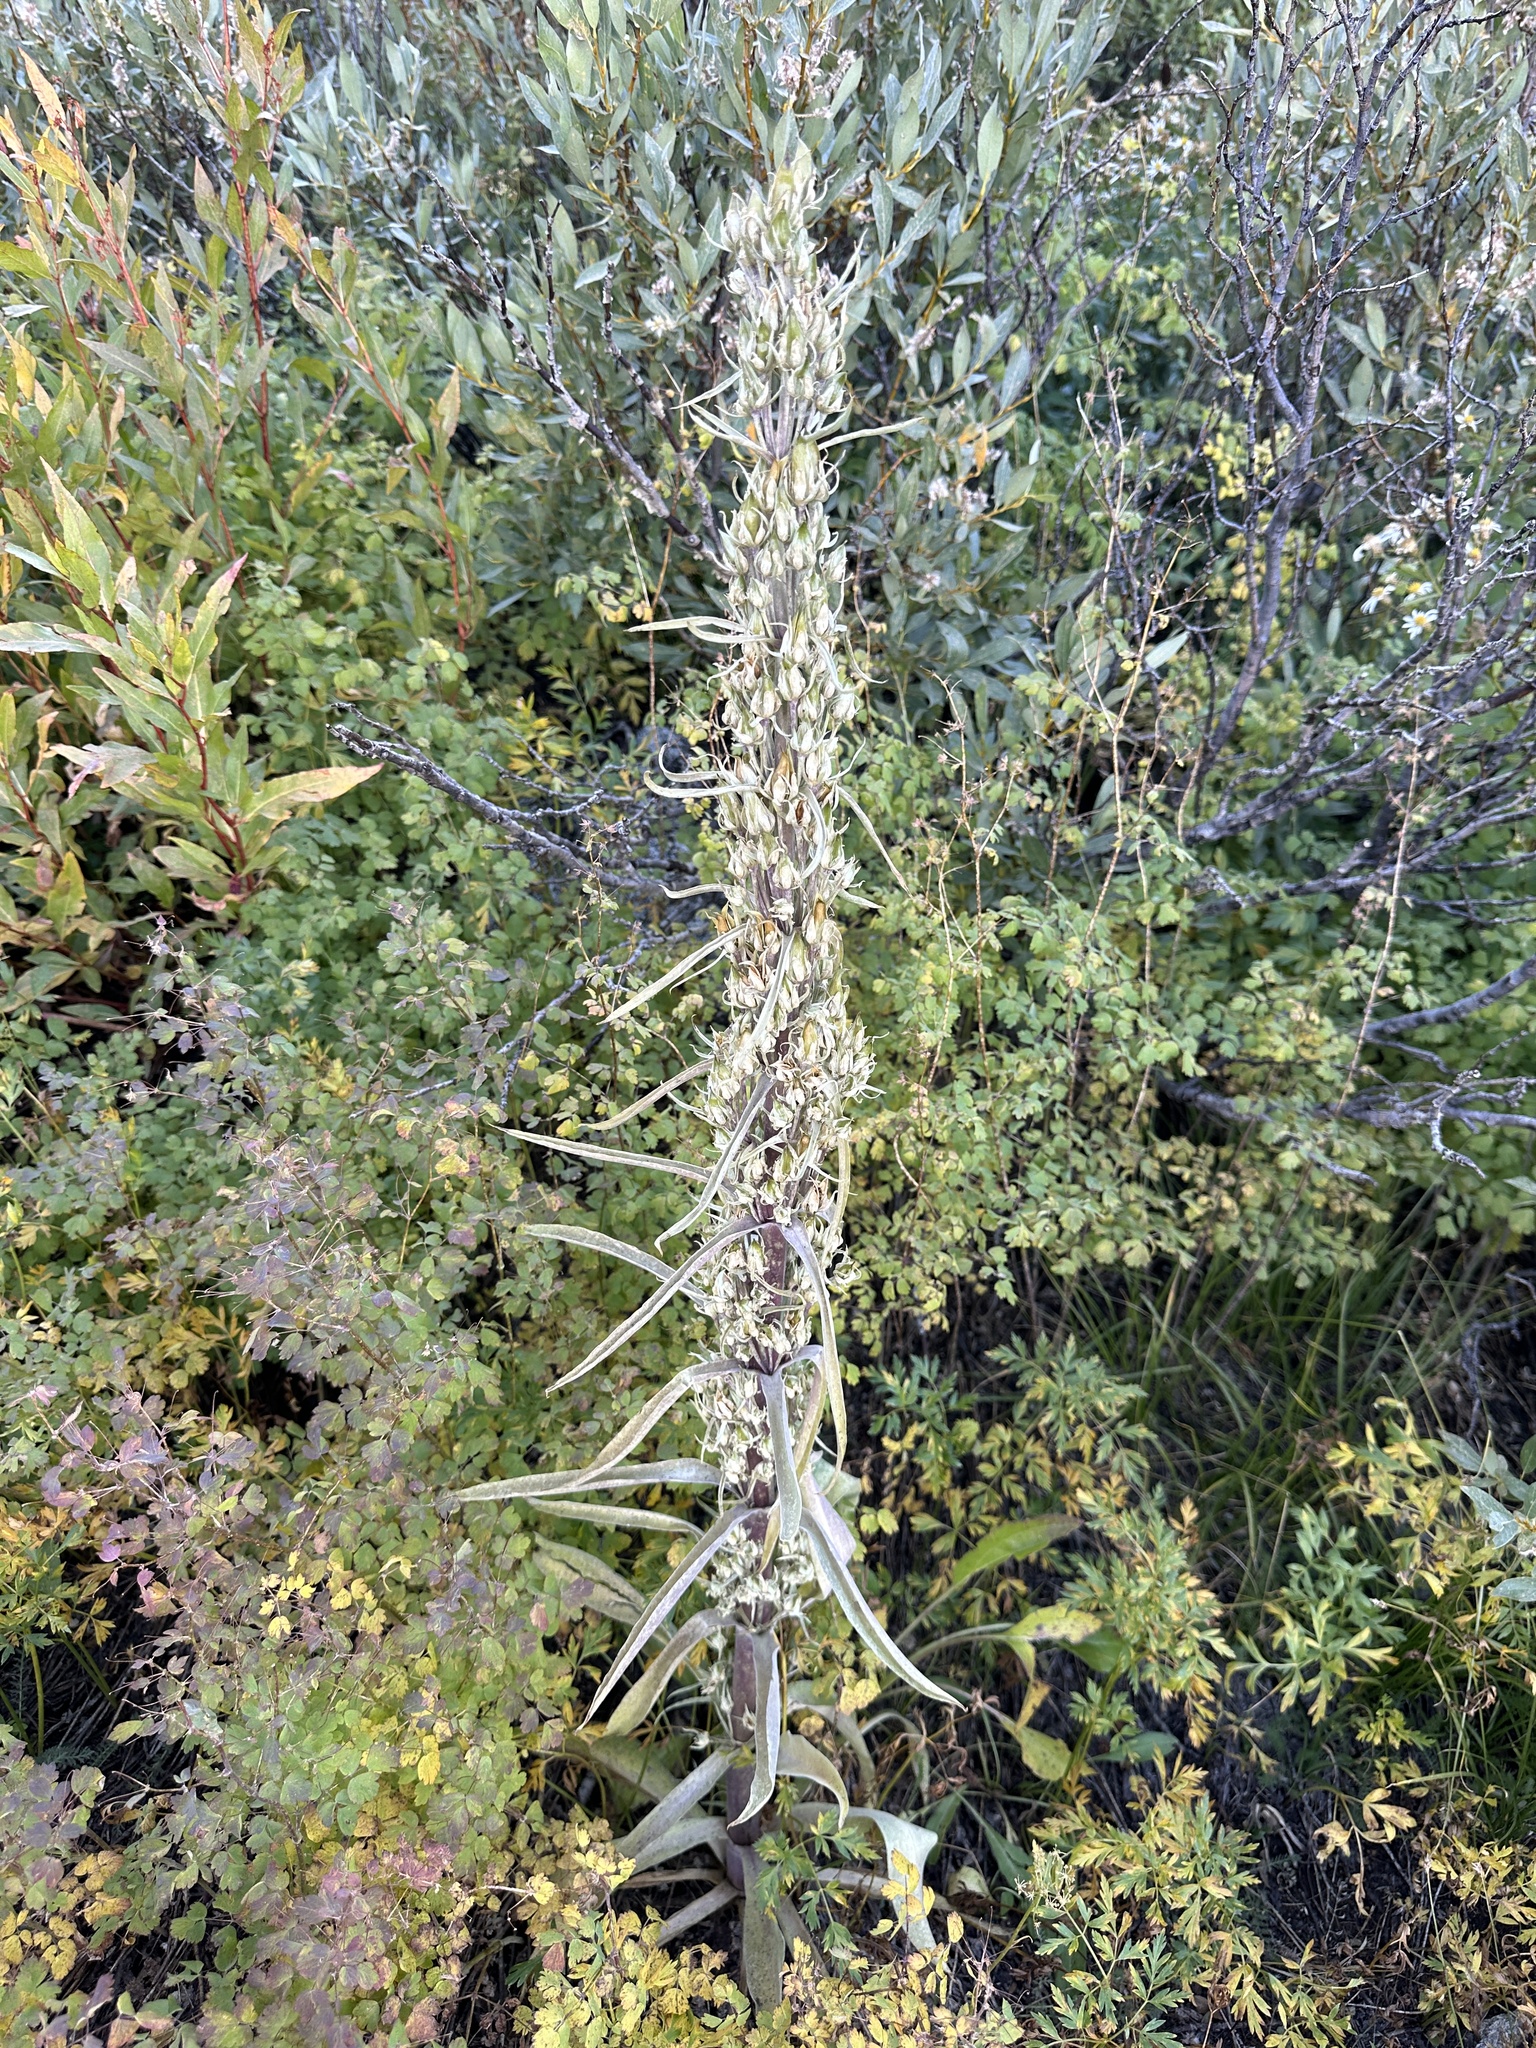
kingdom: Plantae
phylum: Tracheophyta
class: Magnoliopsida
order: Gentianales
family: Gentianaceae
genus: Frasera
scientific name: Frasera speciosa
